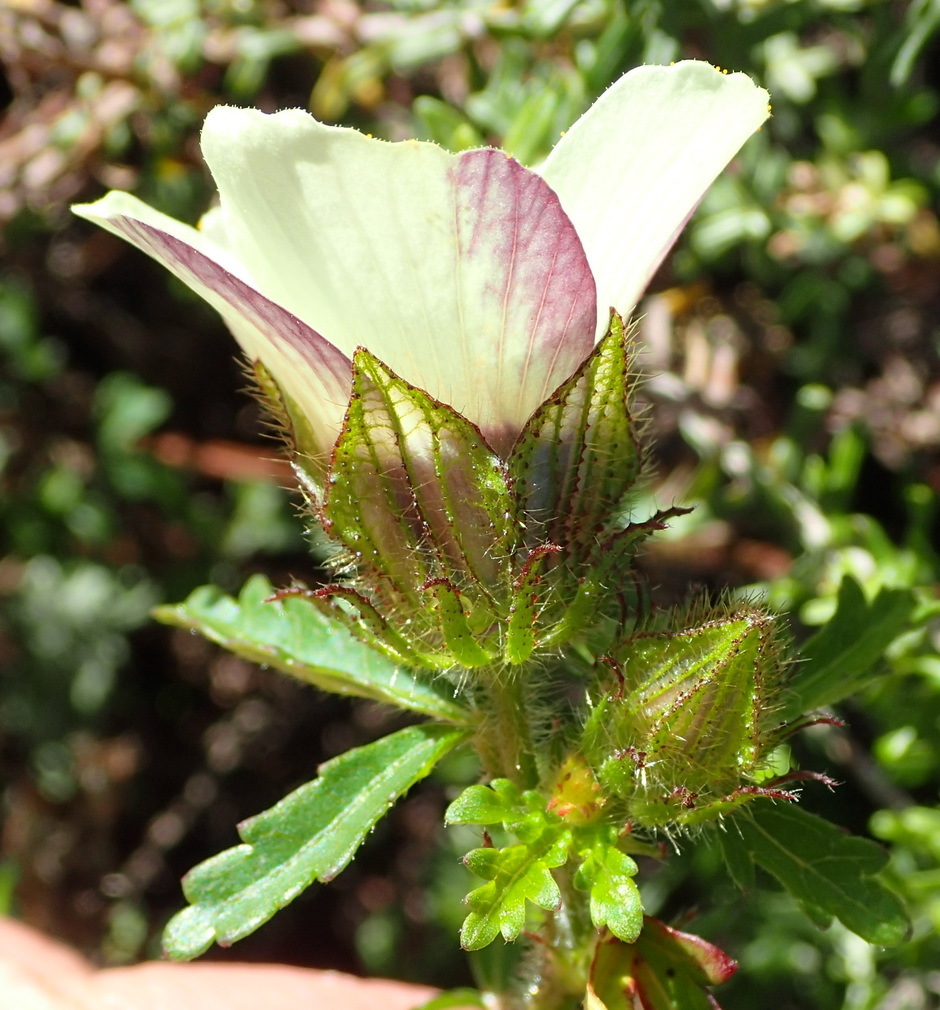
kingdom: Plantae
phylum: Tracheophyta
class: Magnoliopsida
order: Malvales
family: Malvaceae
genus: Hibiscus
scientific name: Hibiscus trionum
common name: Bladder ketmia
